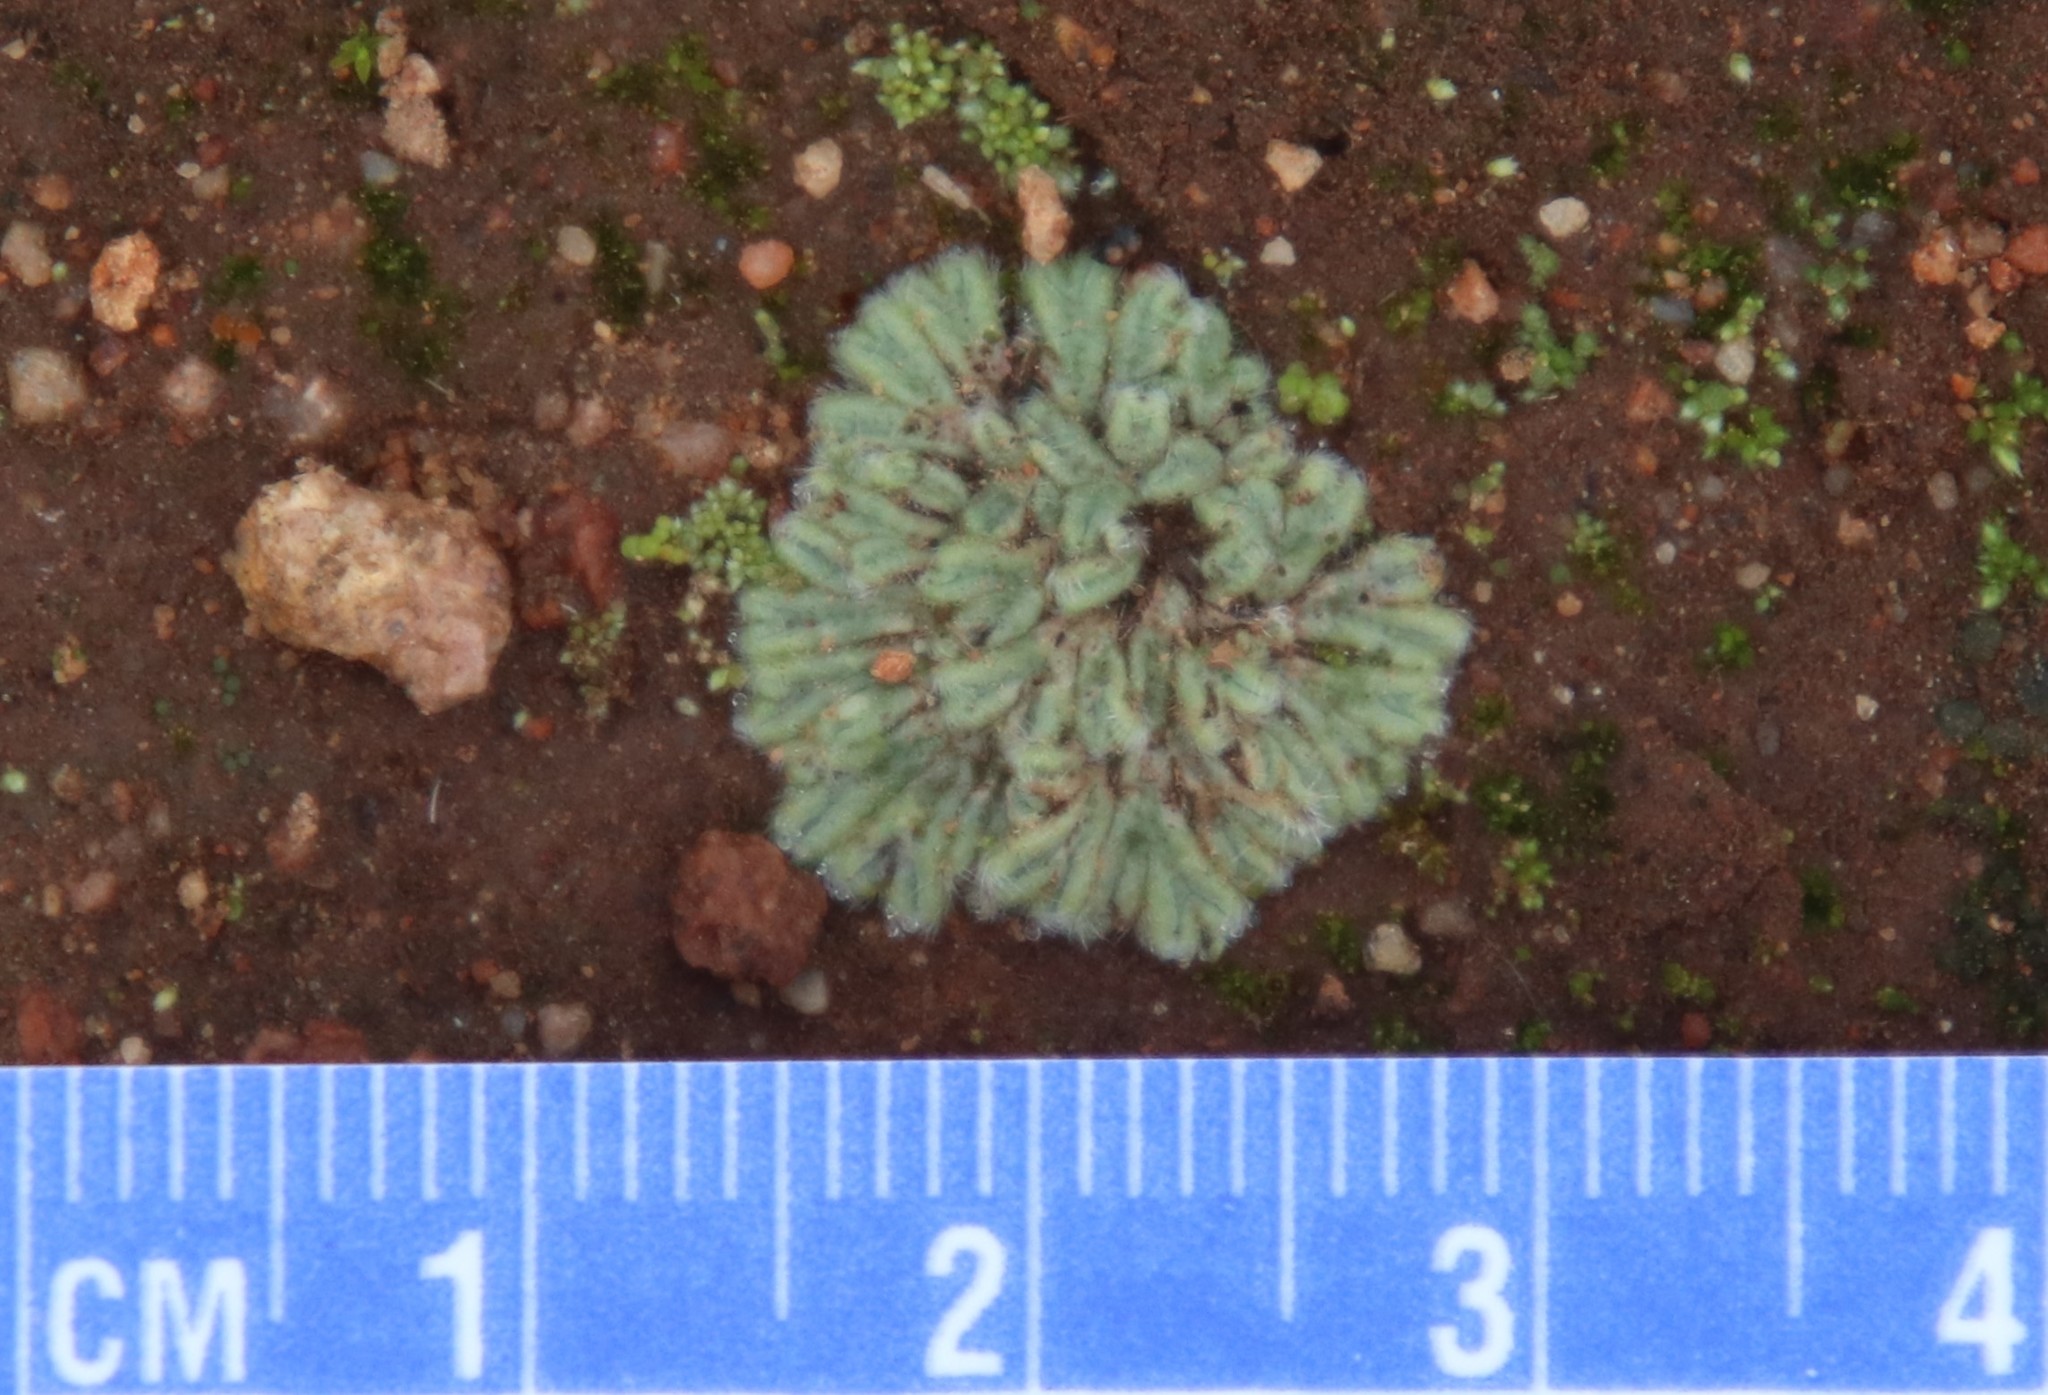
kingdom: Plantae
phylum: Marchantiophyta
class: Marchantiopsida
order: Marchantiales
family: Ricciaceae
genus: Riccia
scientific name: Riccia trichocarpa
